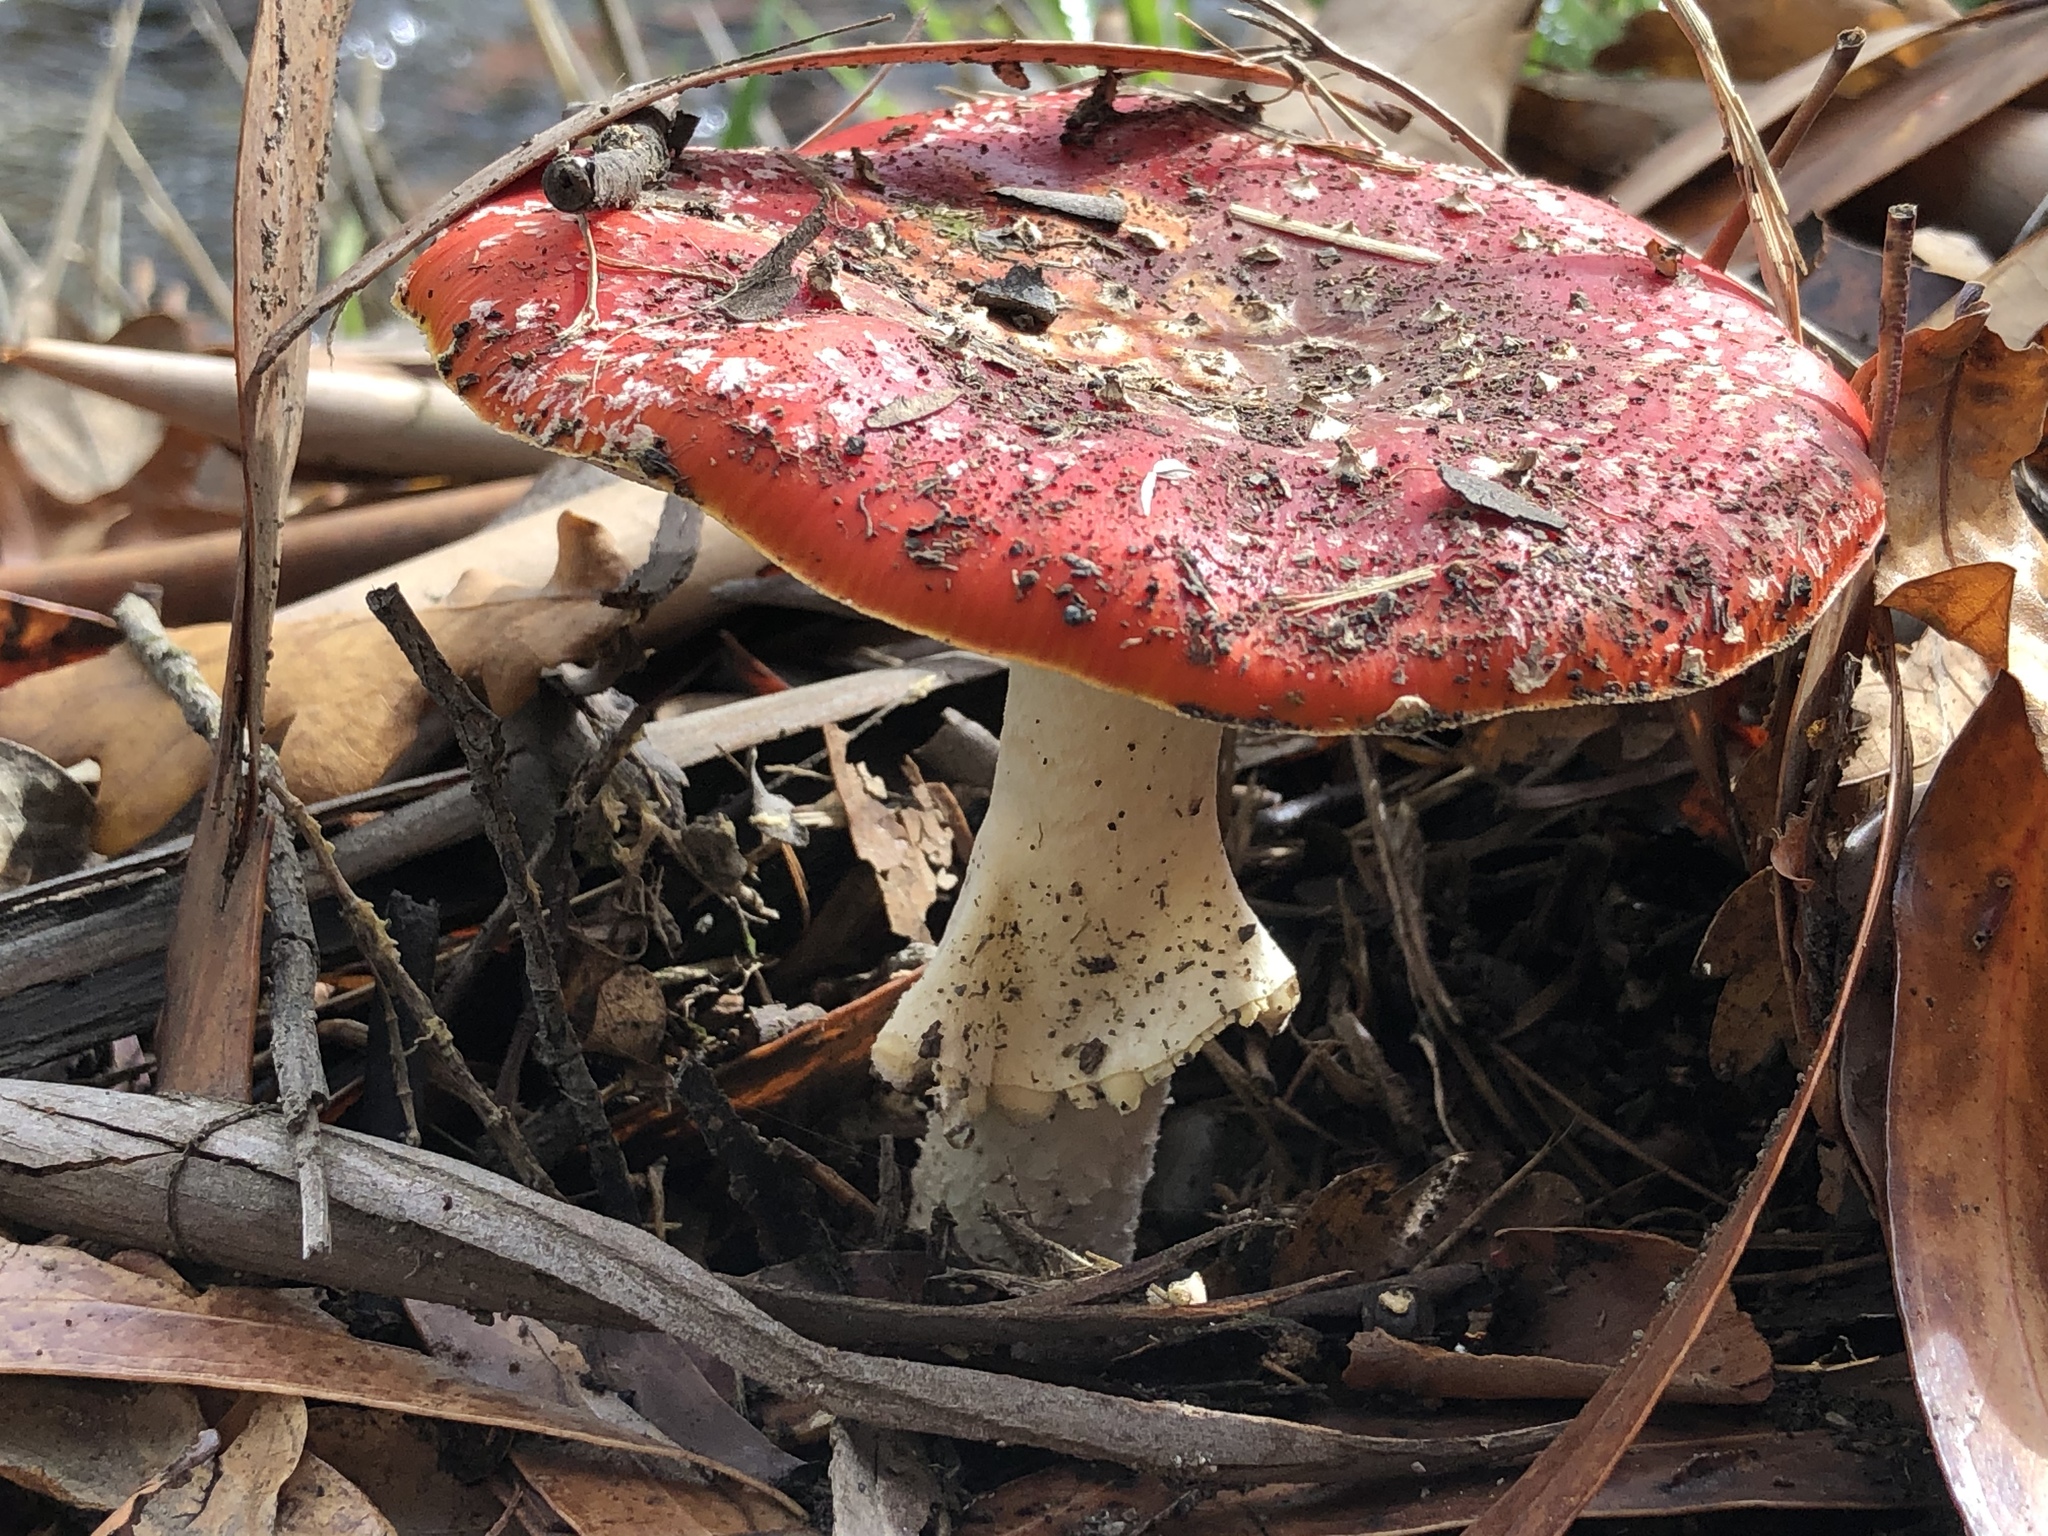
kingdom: Fungi
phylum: Basidiomycota
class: Agaricomycetes
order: Agaricales
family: Amanitaceae
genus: Amanita
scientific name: Amanita muscaria
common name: Fly agaric
